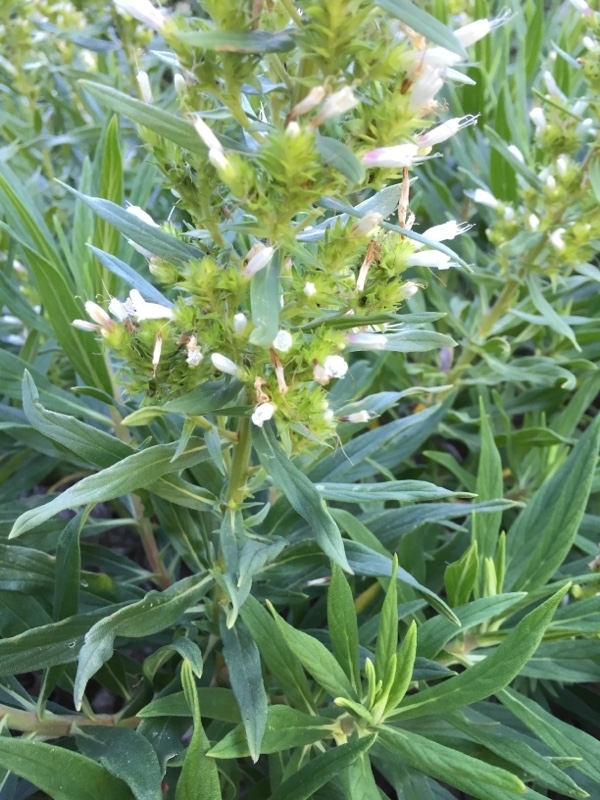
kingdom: Plantae
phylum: Tracheophyta
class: Magnoliopsida
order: Boraginales
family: Boraginaceae
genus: Echium
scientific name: Echium decaisnei
